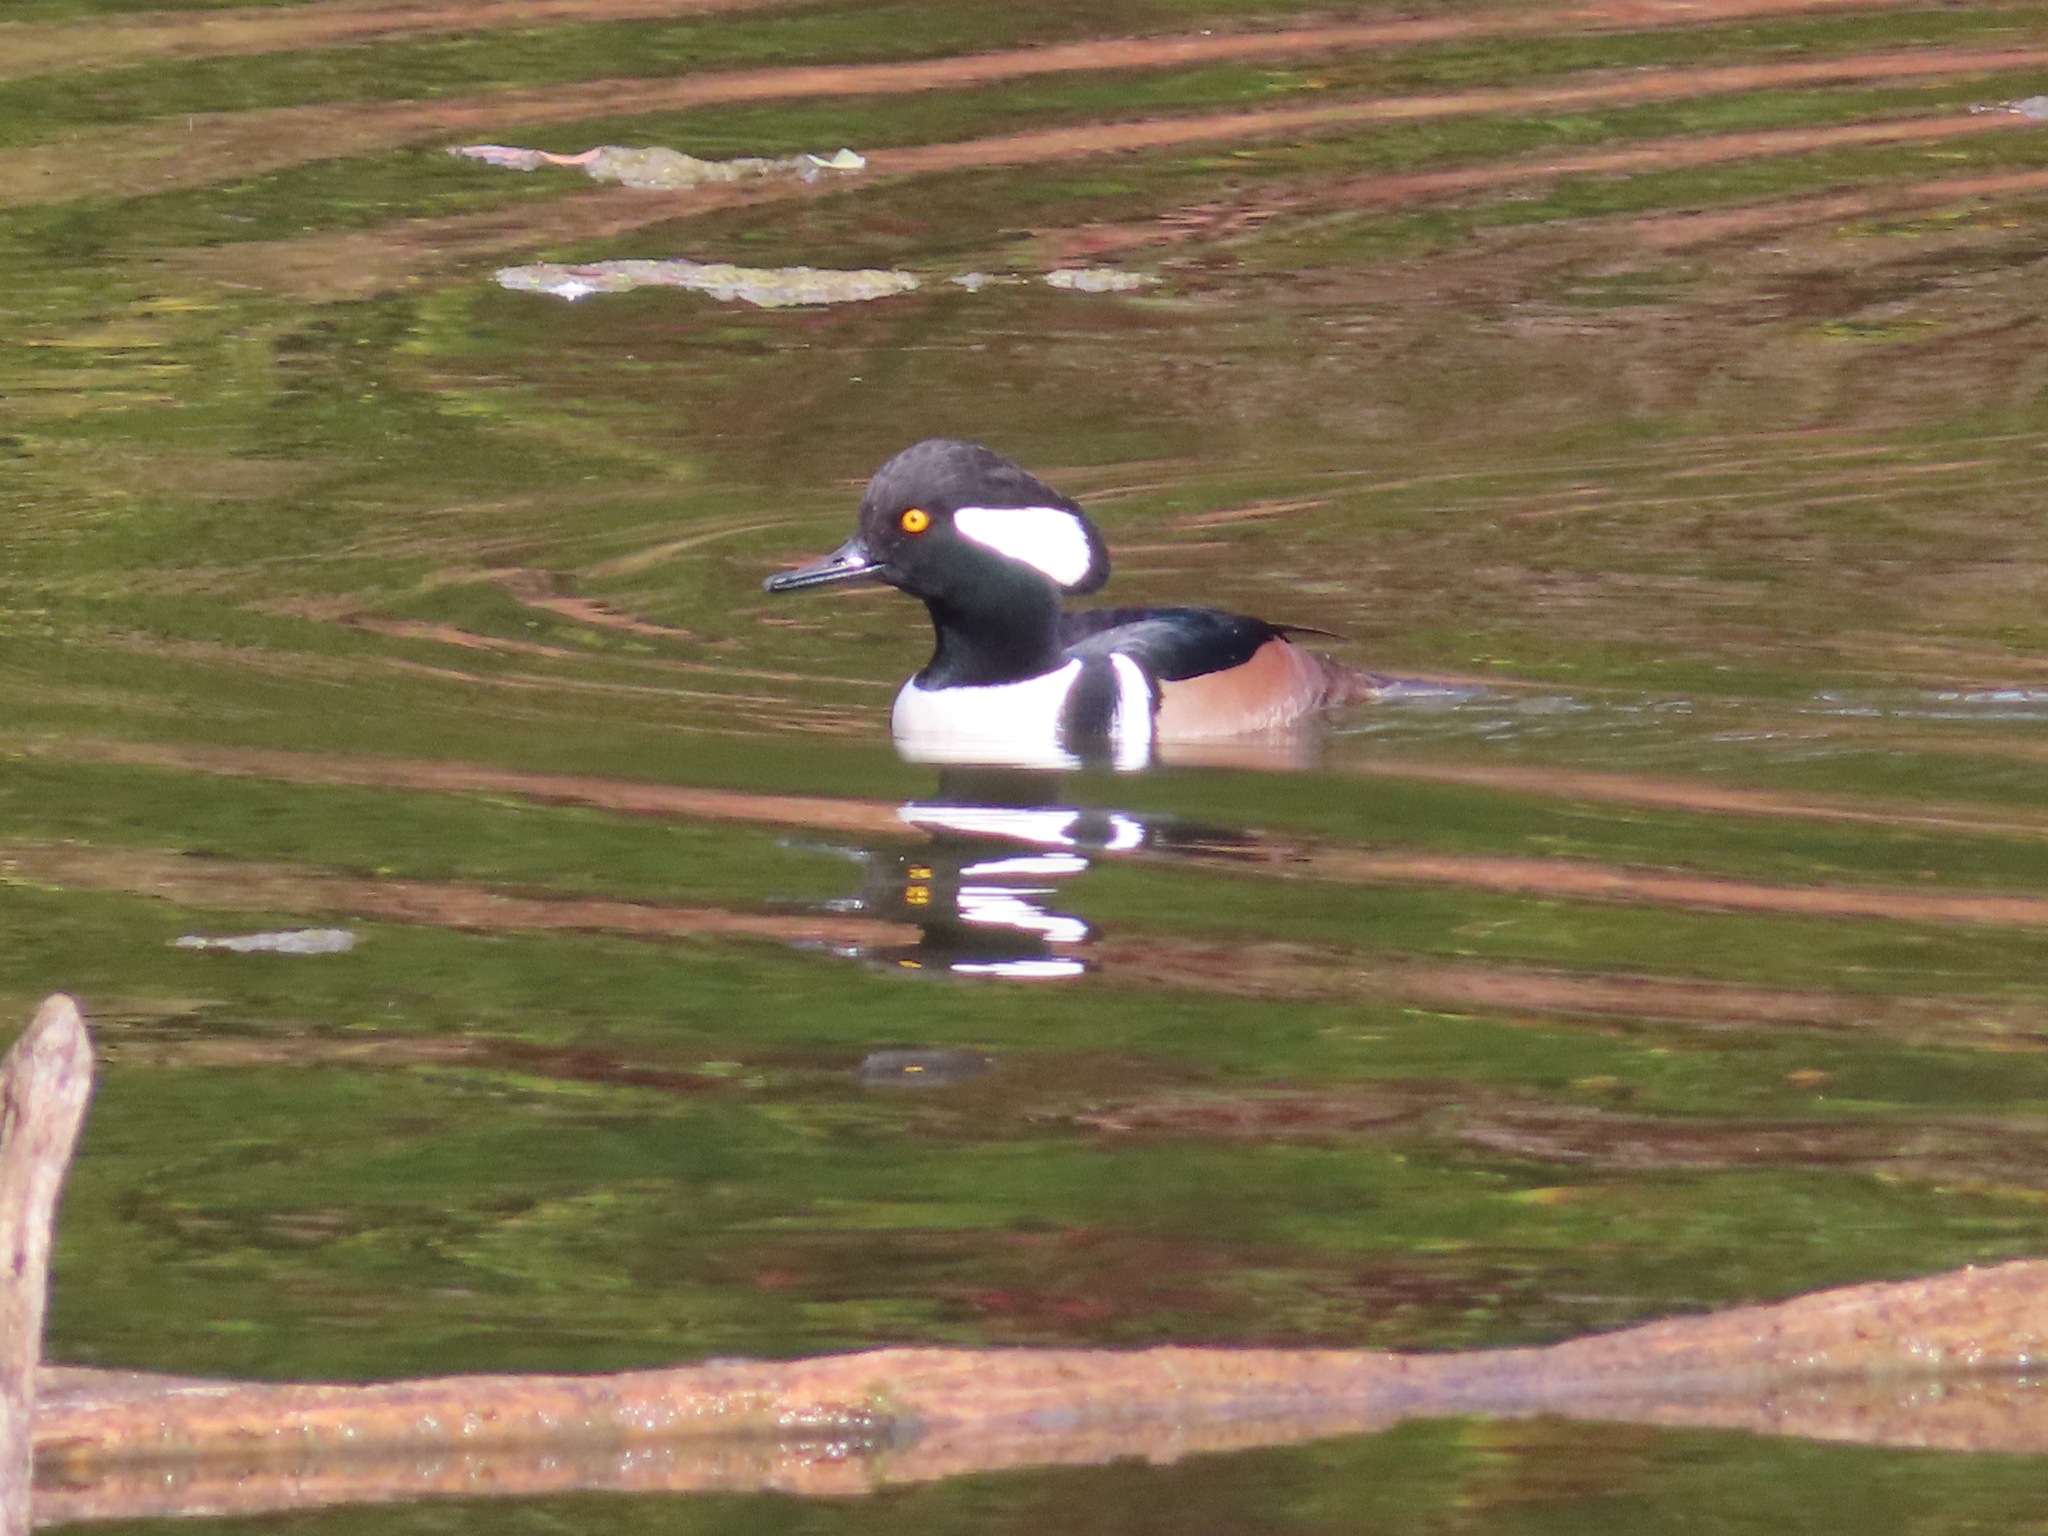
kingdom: Animalia
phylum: Chordata
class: Aves
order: Anseriformes
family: Anatidae
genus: Lophodytes
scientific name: Lophodytes cucullatus
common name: Hooded merganser
